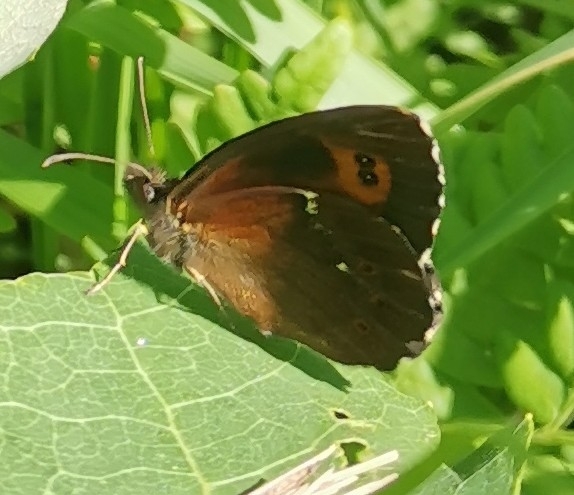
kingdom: Animalia
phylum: Arthropoda
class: Insecta
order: Lepidoptera
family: Nymphalidae
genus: Erebia
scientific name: Erebia ligea
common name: Arran brown
